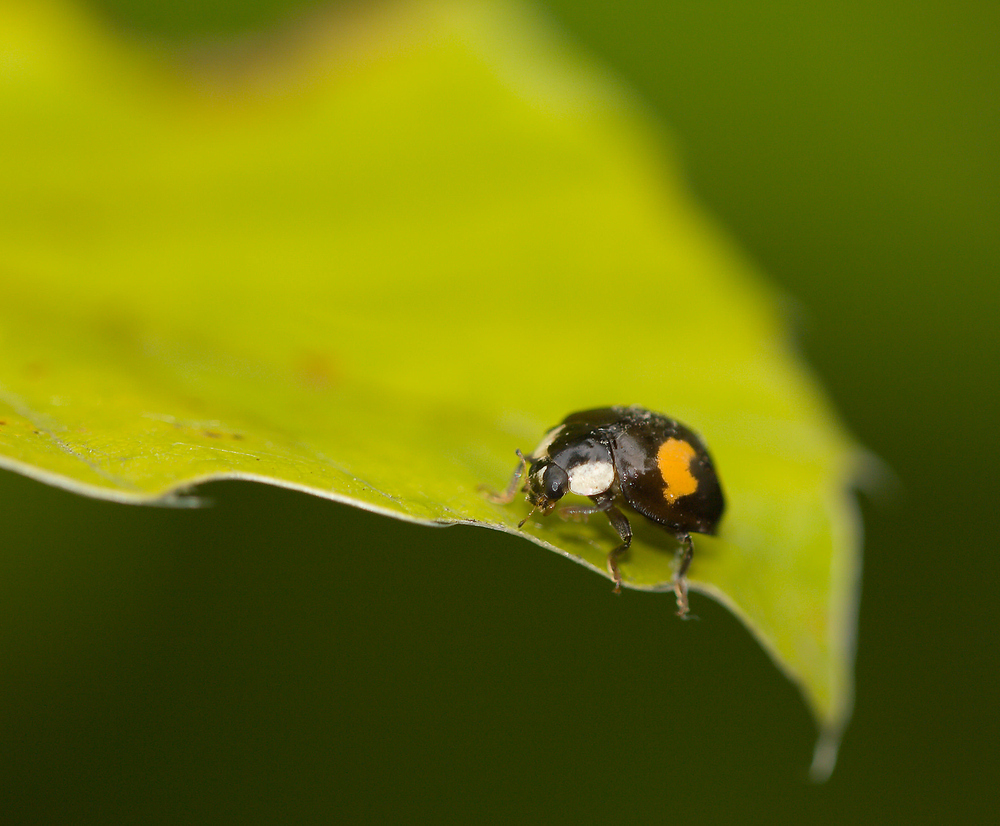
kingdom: Animalia
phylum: Arthropoda
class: Insecta
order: Coleoptera
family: Coccinellidae
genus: Harmonia
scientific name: Harmonia axyridis
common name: Harlequin ladybird
